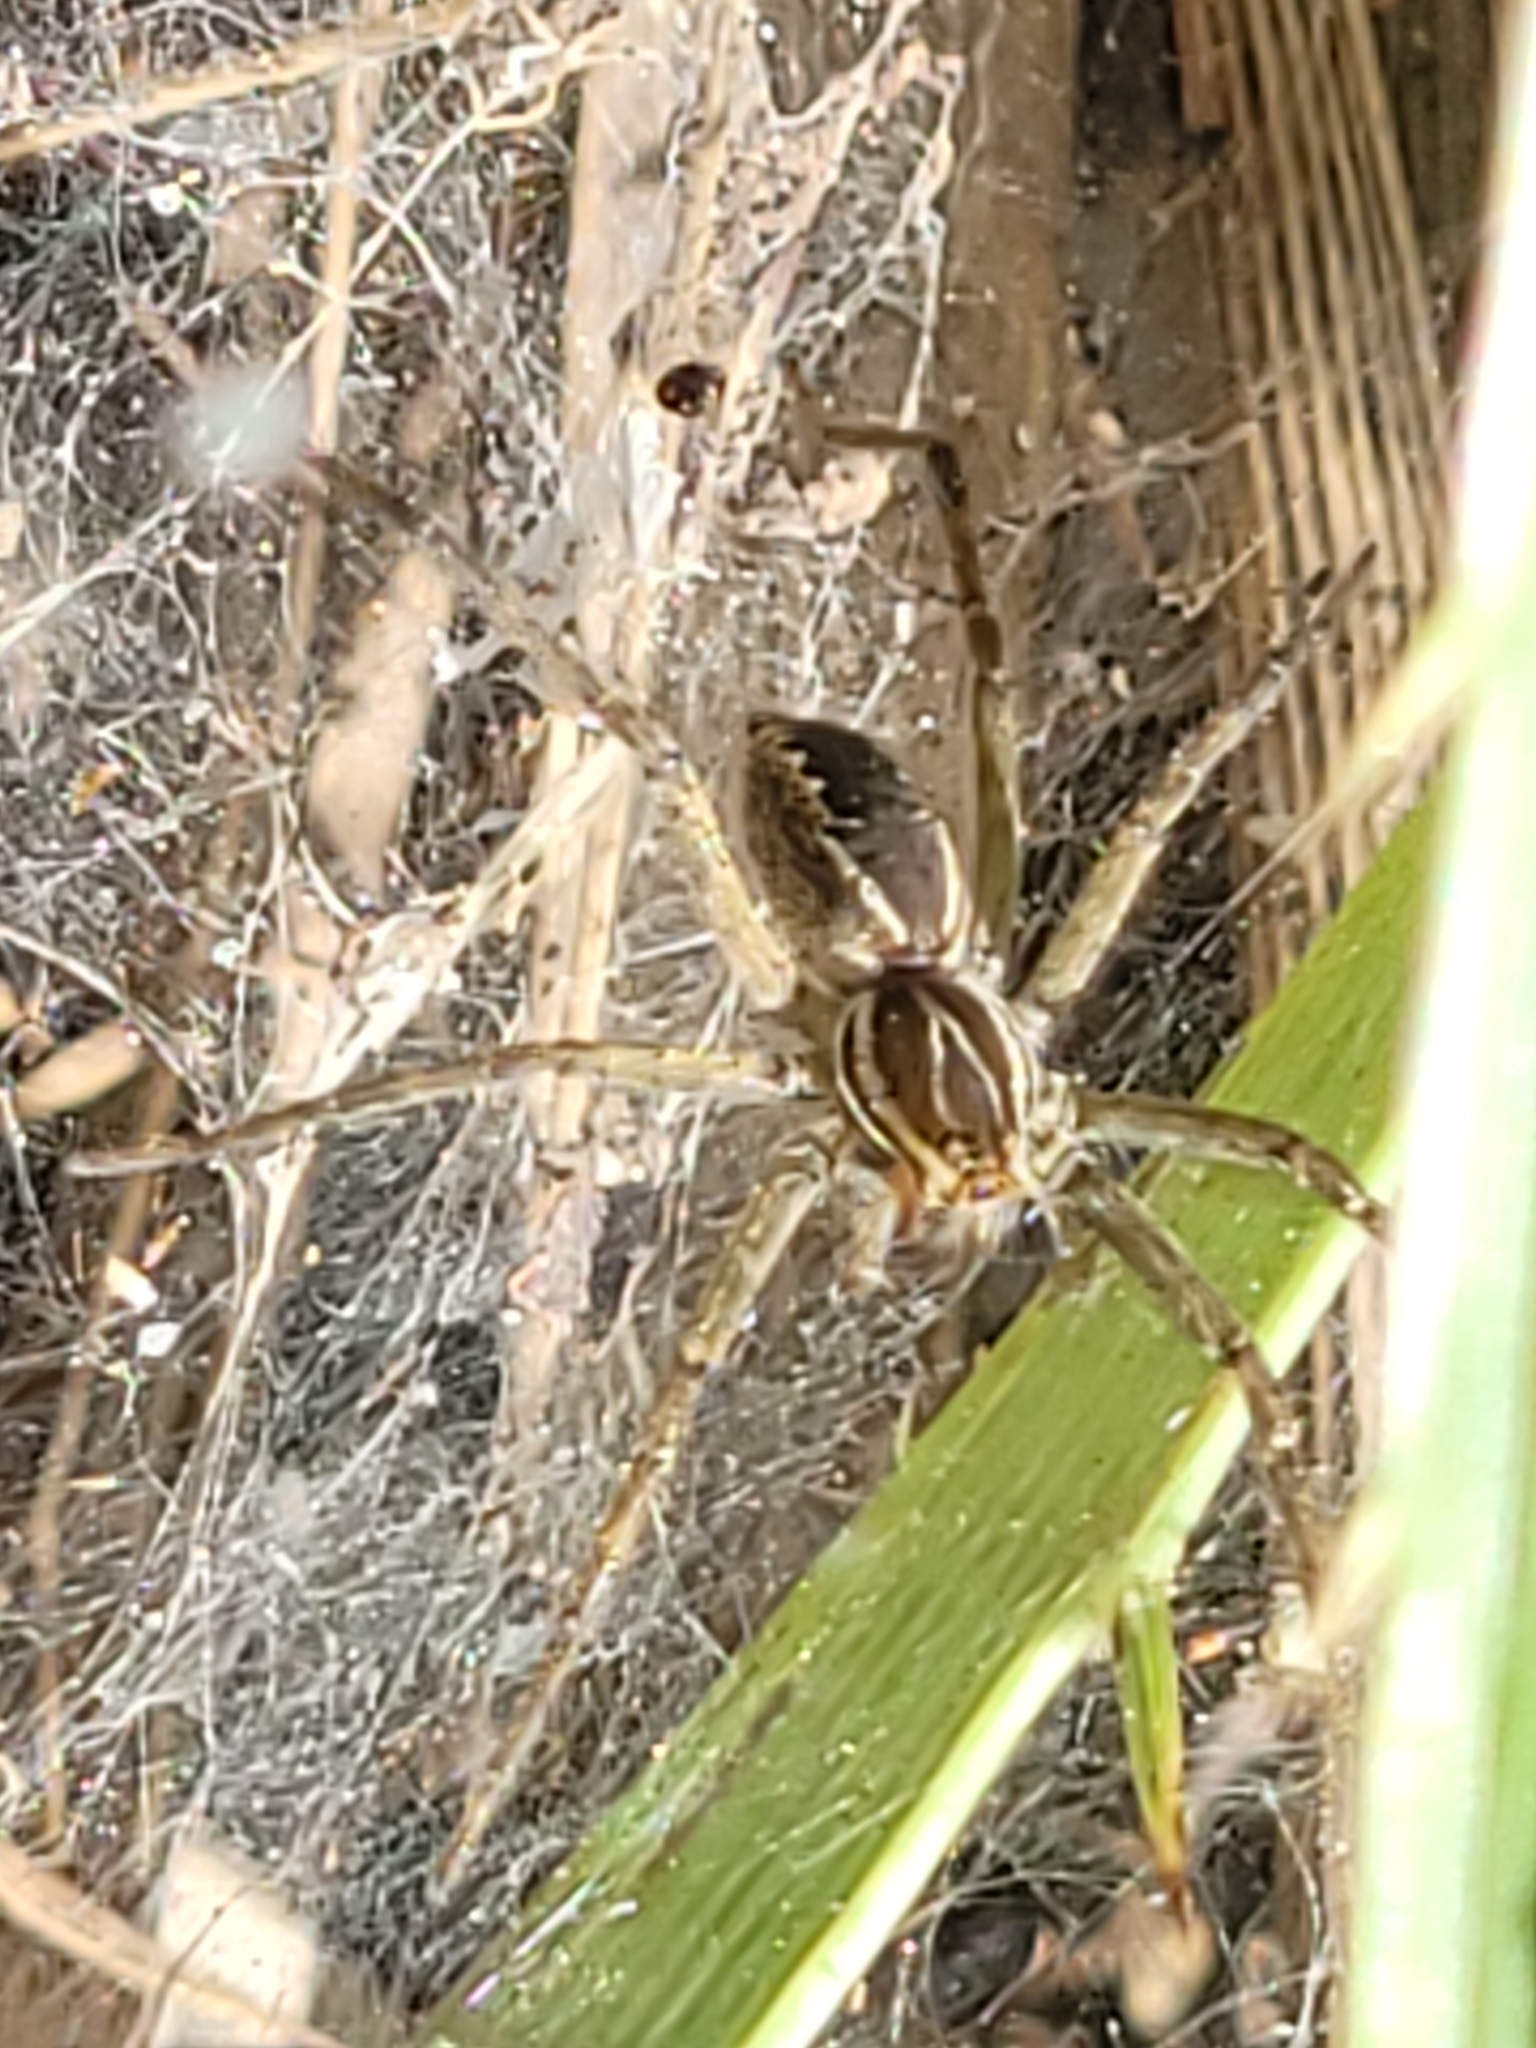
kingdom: Animalia
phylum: Arthropoda
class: Arachnida
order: Araneae
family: Lycosidae
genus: Aglaoctenus
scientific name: Aglaoctenus lagotis
